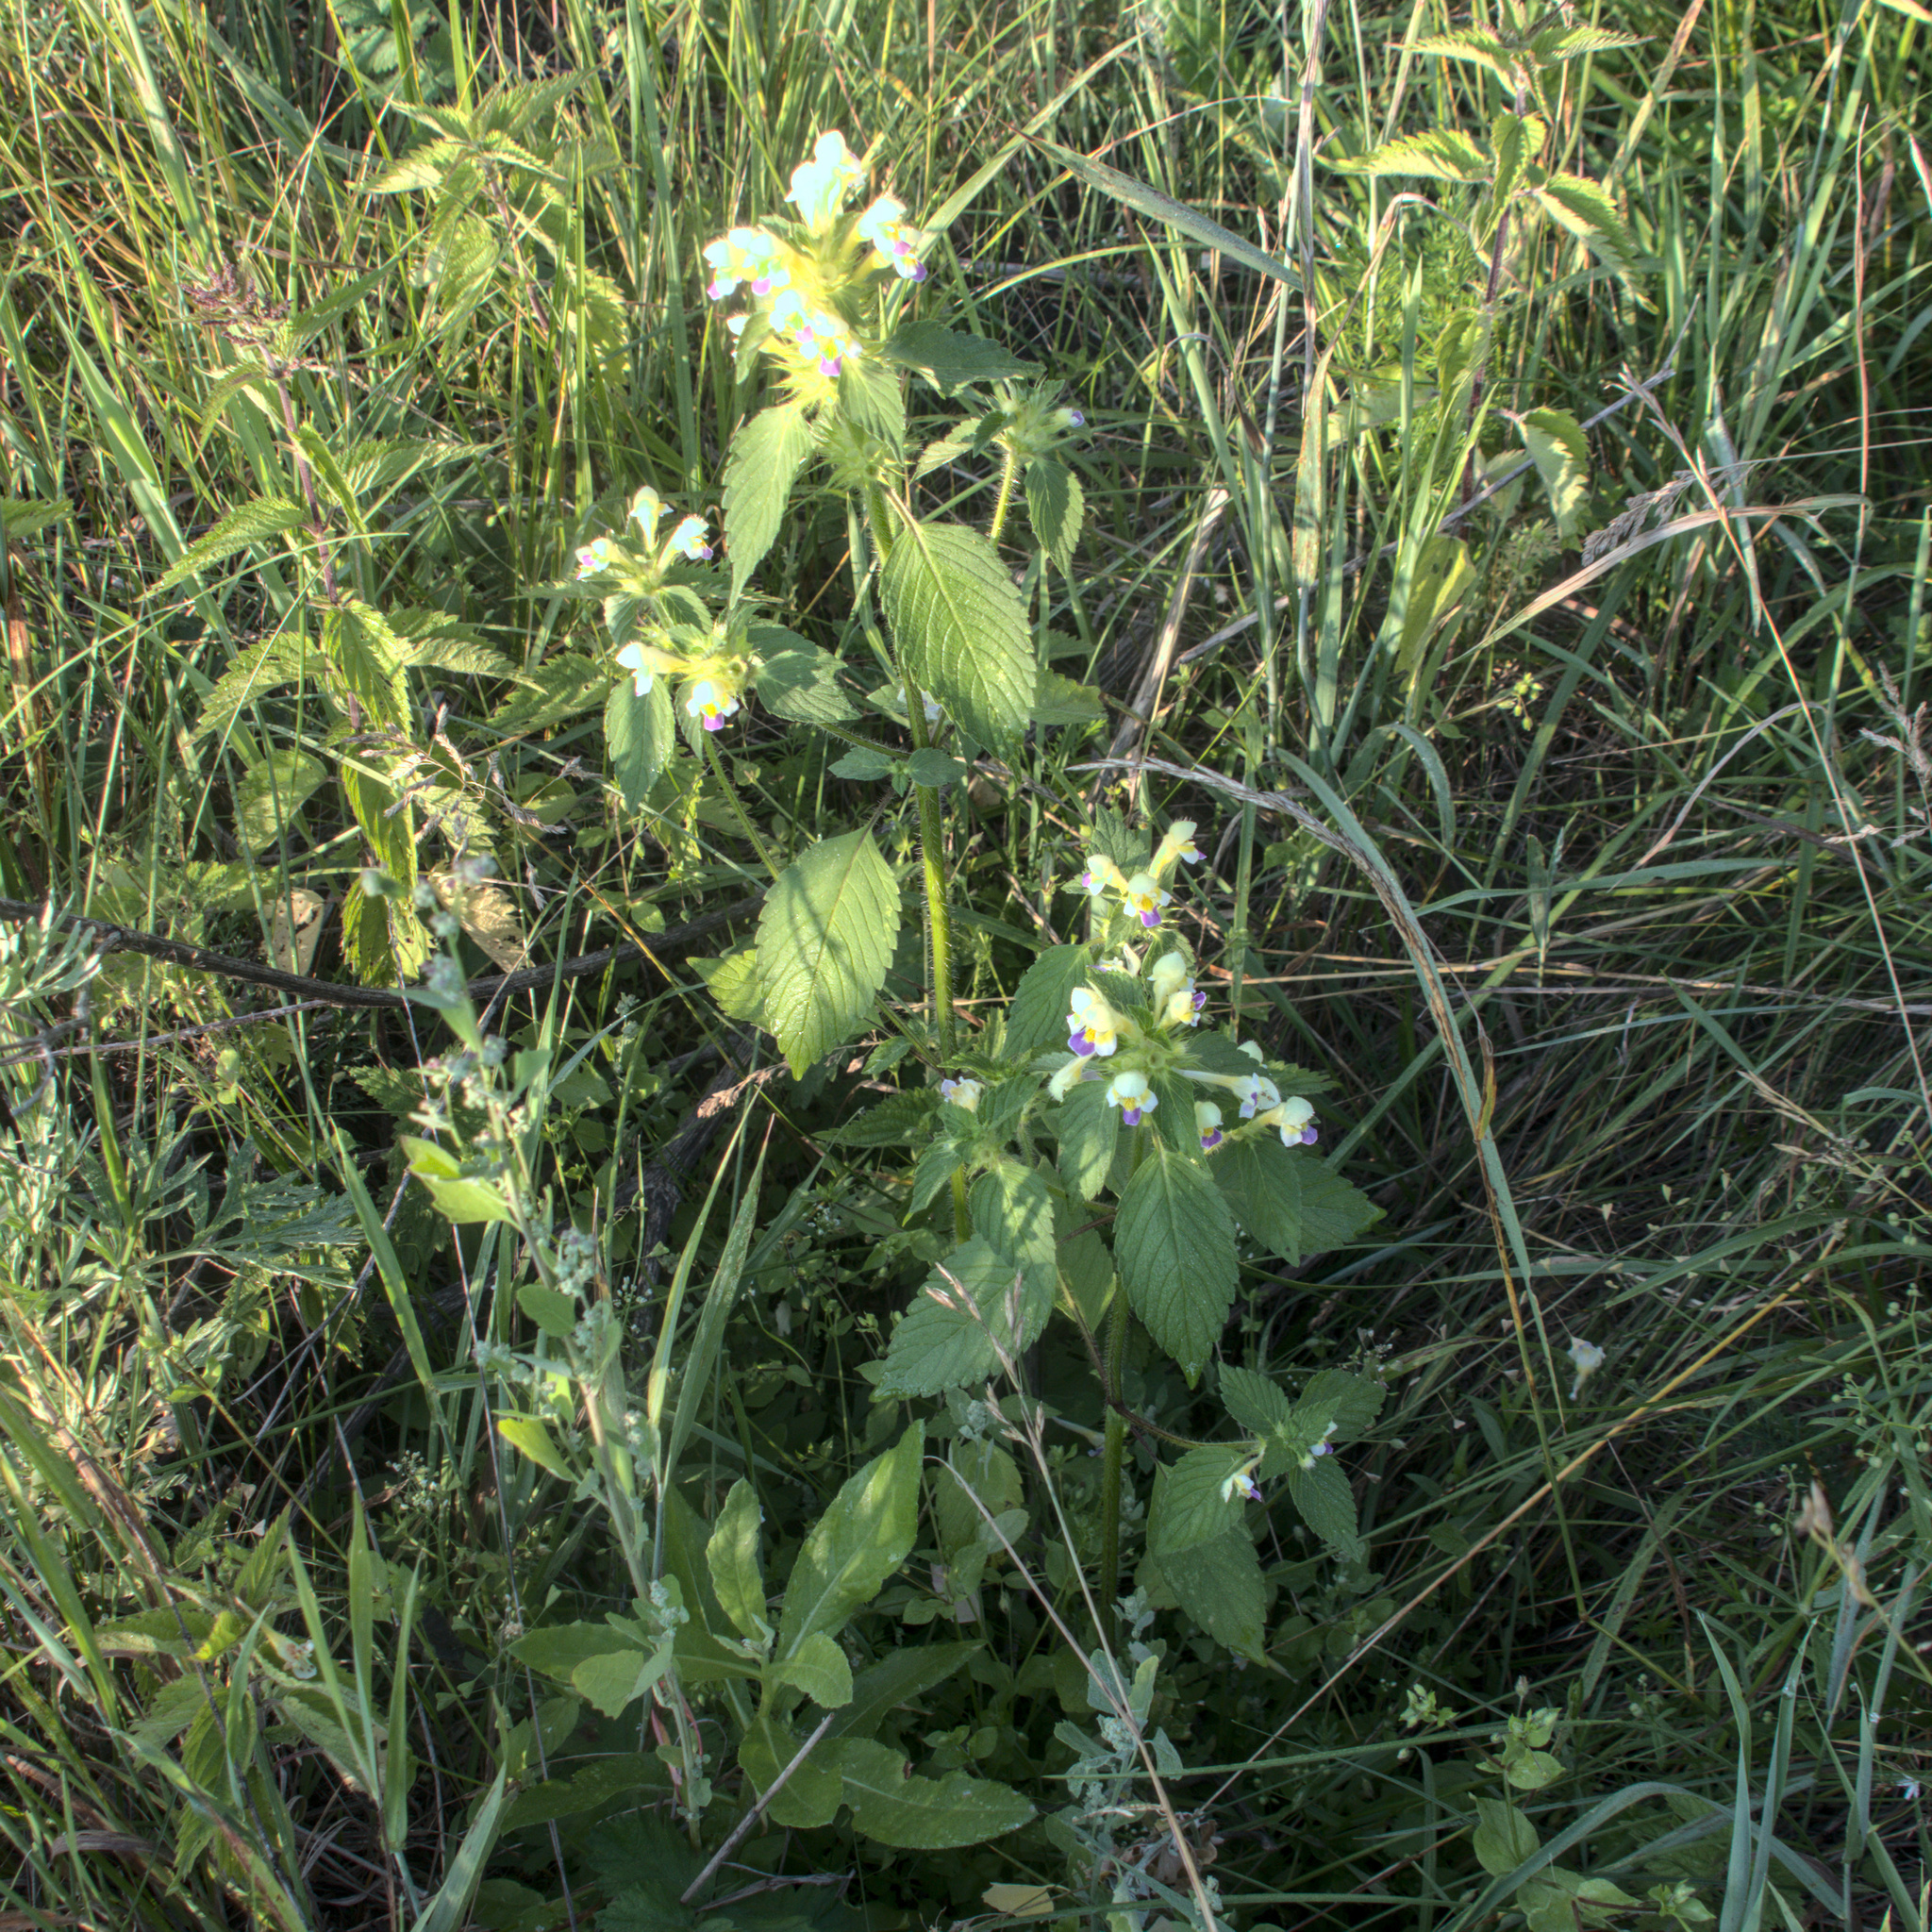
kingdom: Plantae
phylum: Tracheophyta
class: Magnoliopsida
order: Lamiales
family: Lamiaceae
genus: Galeopsis
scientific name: Galeopsis speciosa
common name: Large-flowered hemp-nettle
